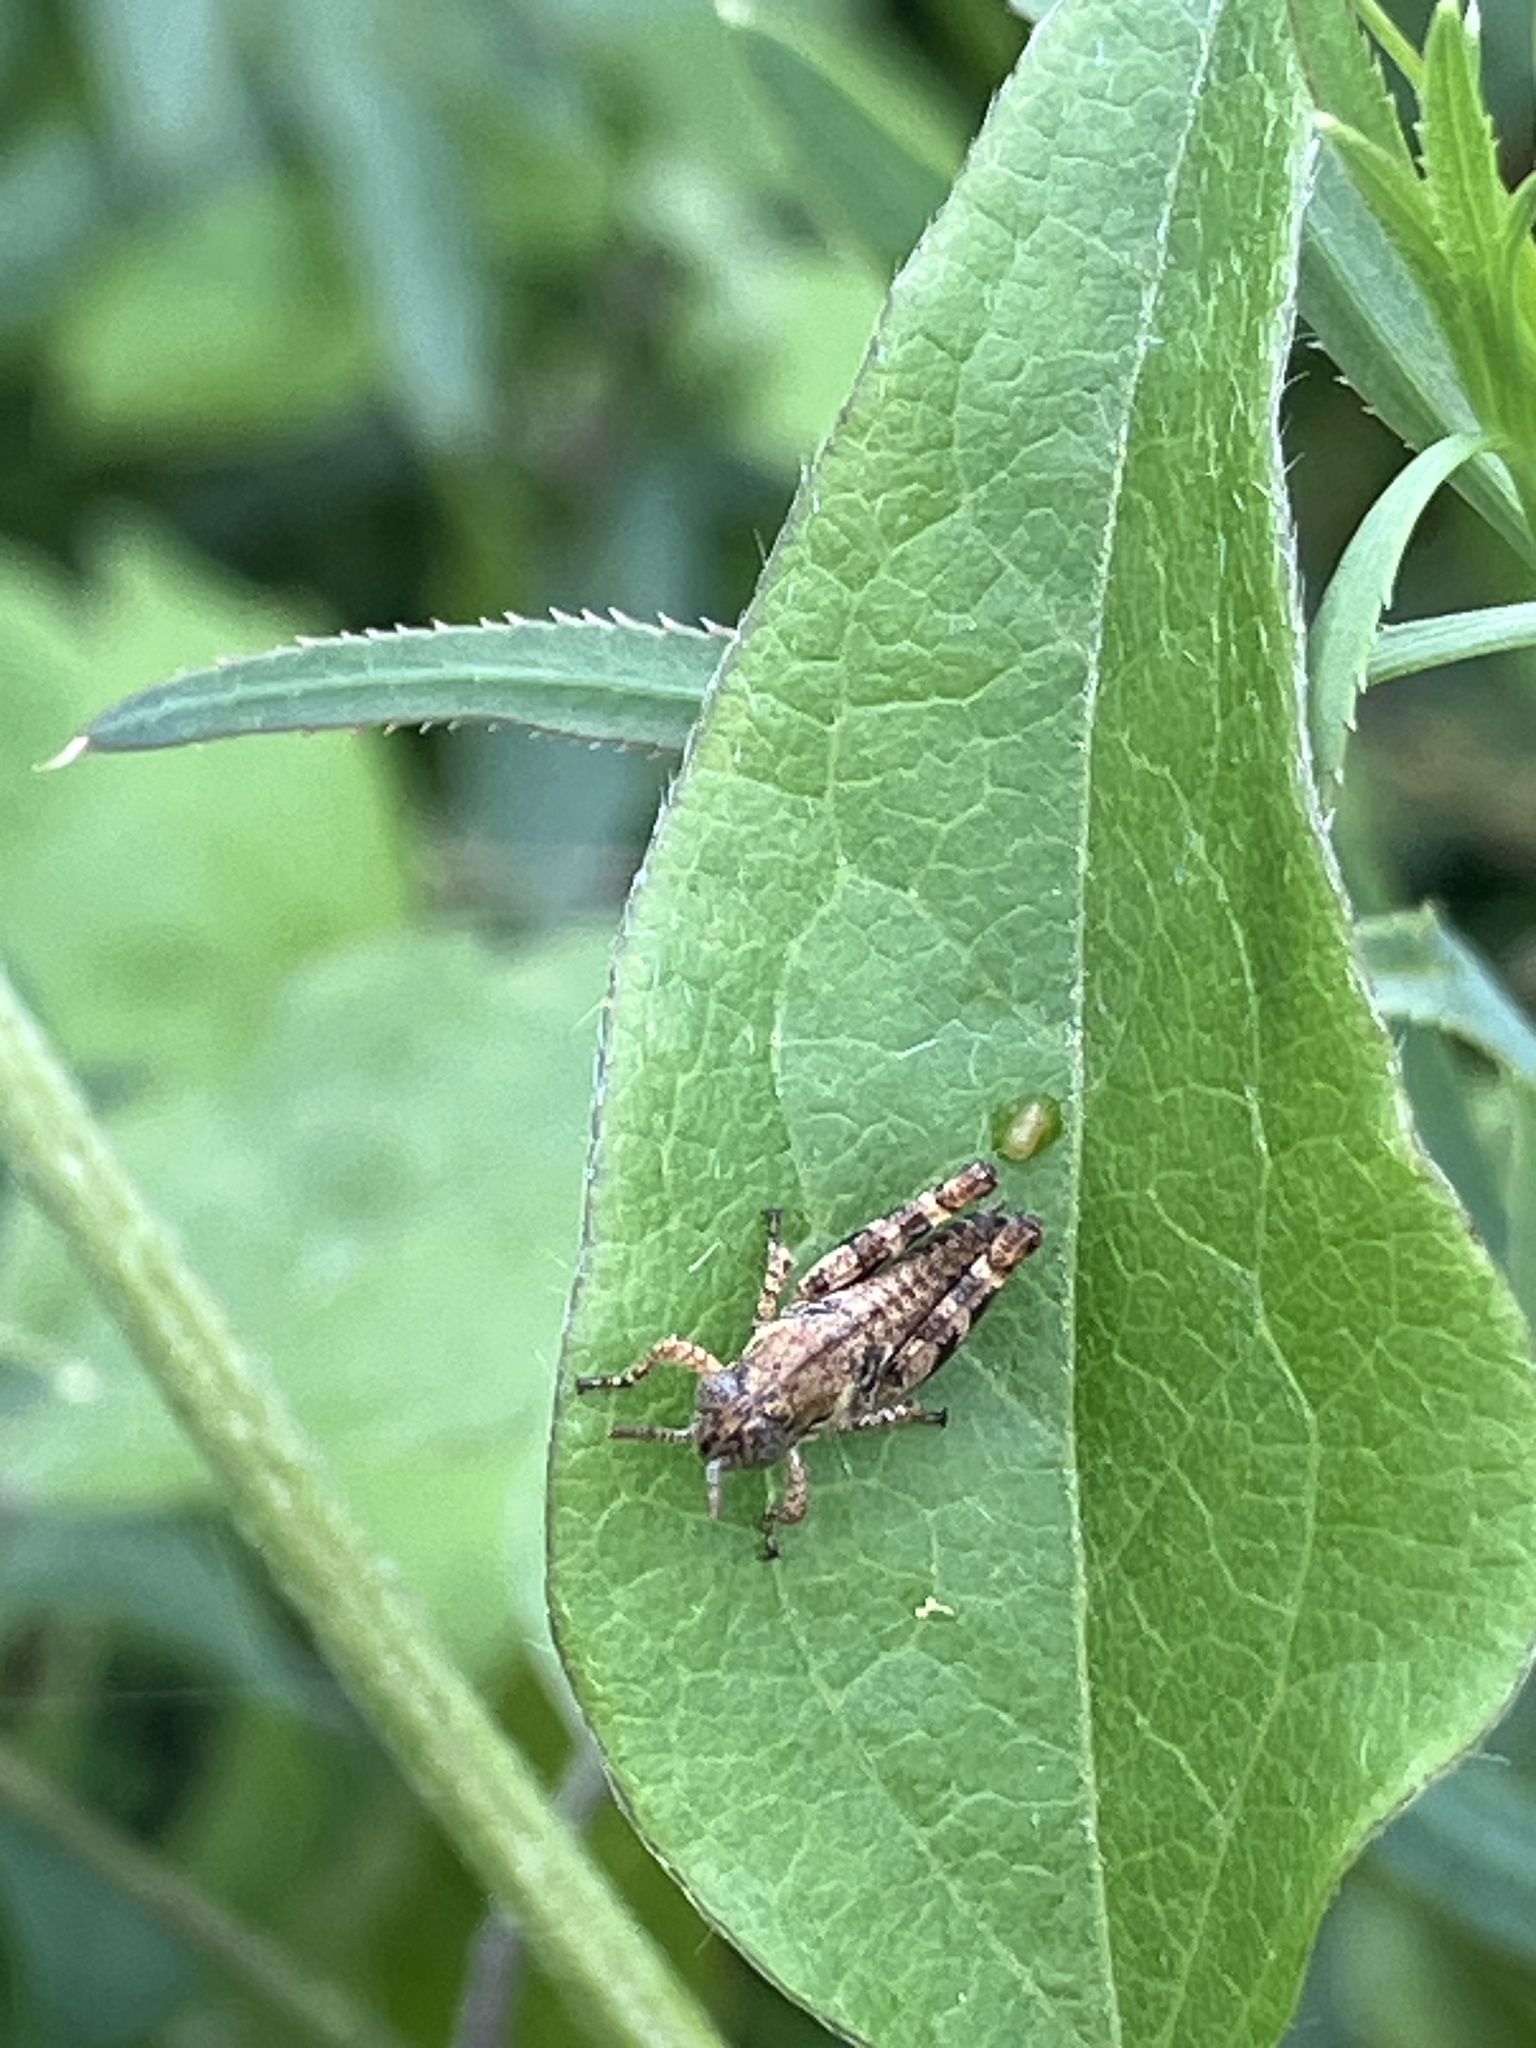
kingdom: Animalia
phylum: Arthropoda
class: Insecta
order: Orthoptera
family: Acrididae
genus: Calliptamus
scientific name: Calliptamus italicus
